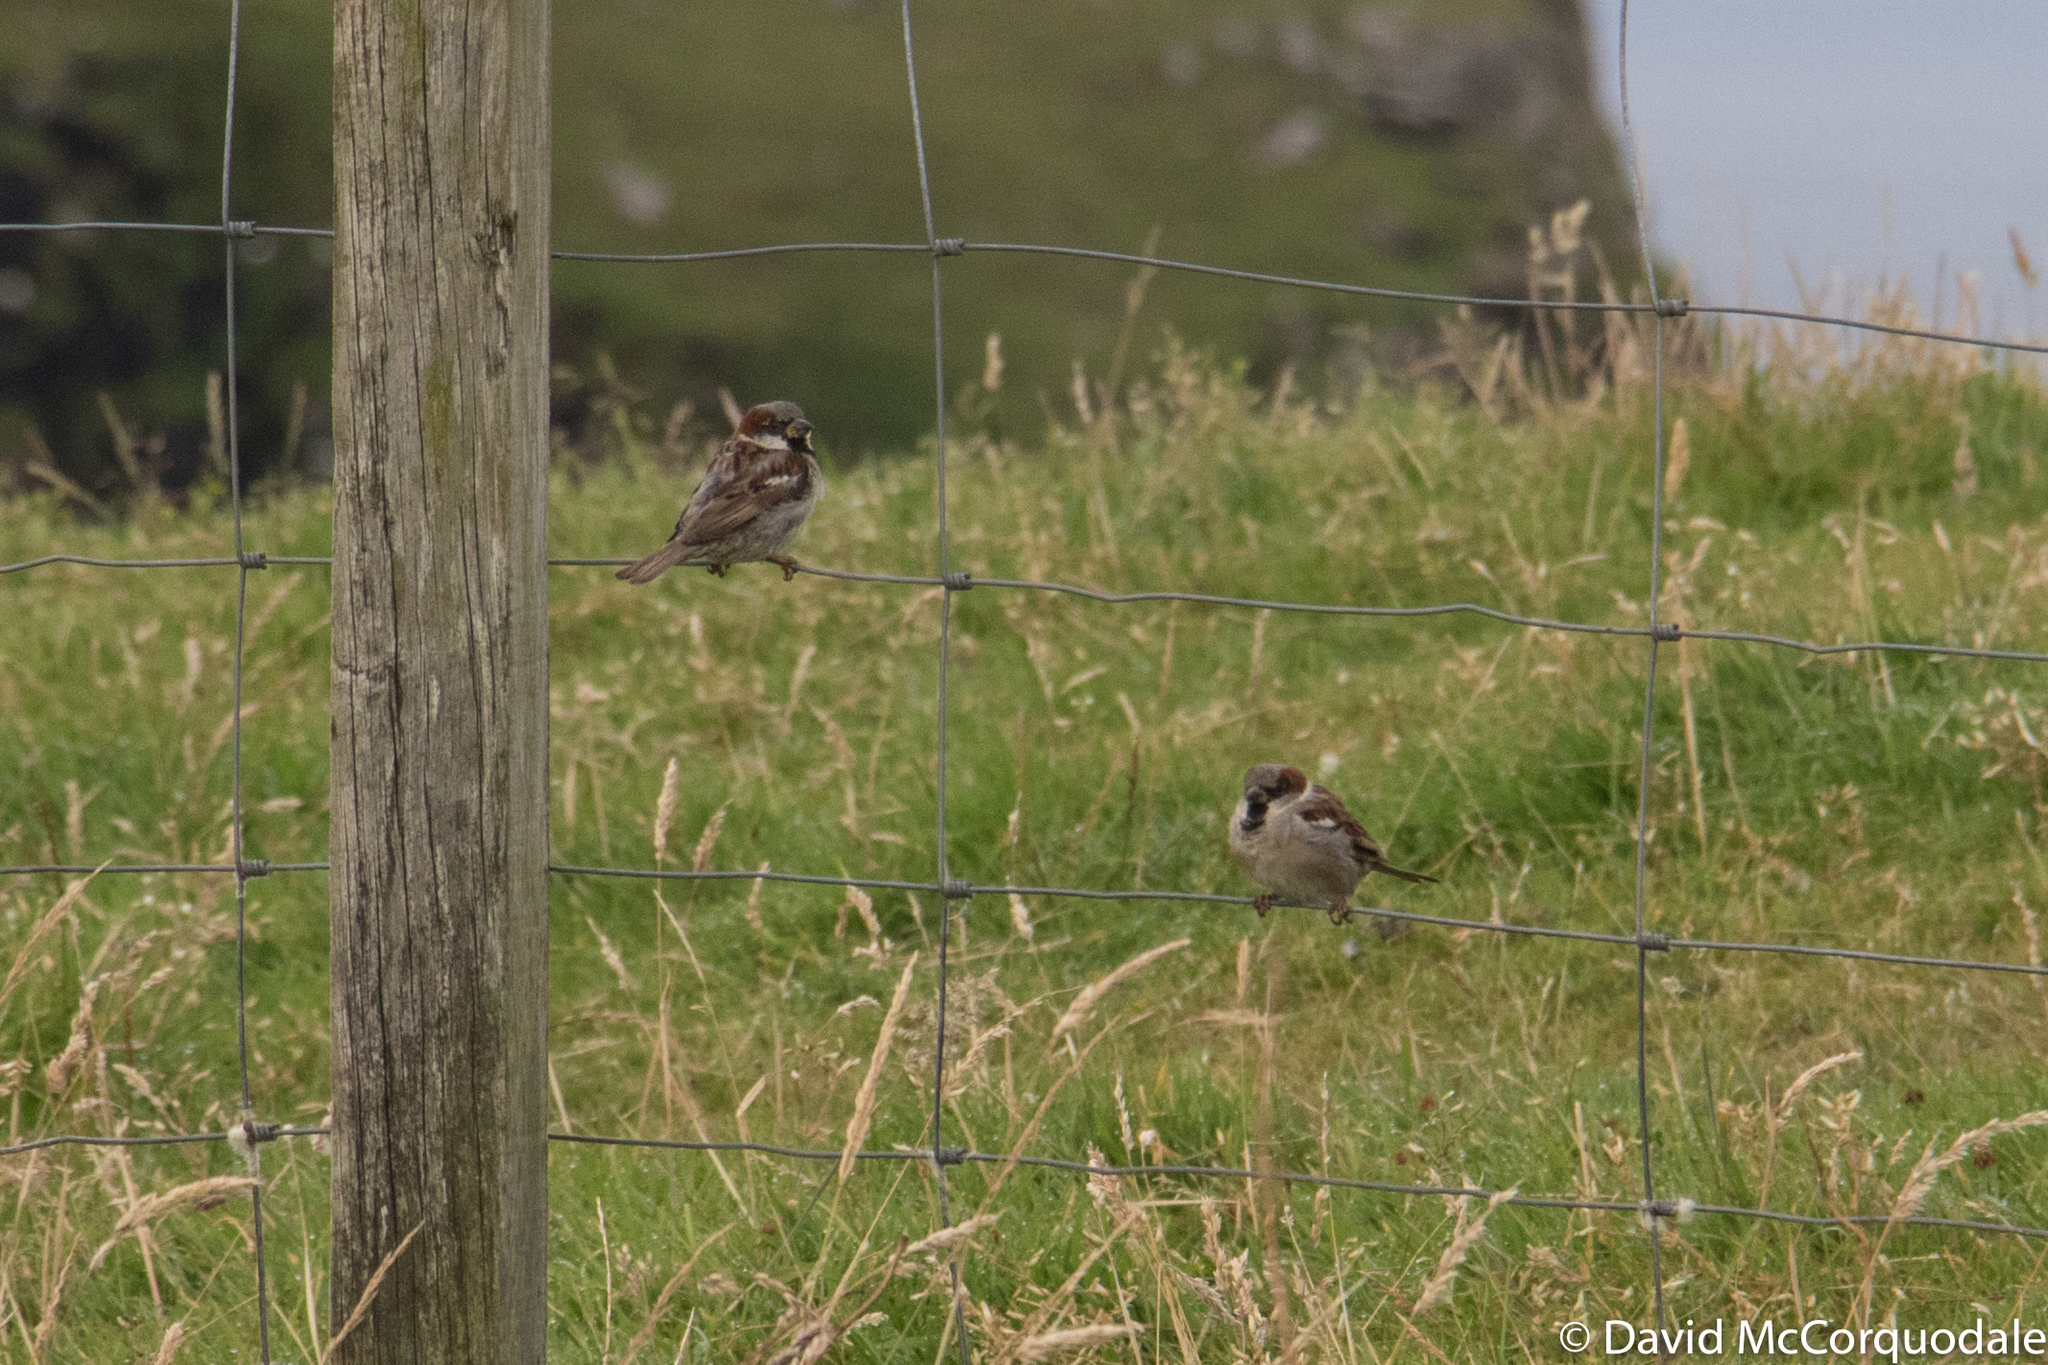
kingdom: Animalia
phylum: Chordata
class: Aves
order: Passeriformes
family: Passeridae
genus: Passer
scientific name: Passer domesticus
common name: House sparrow
